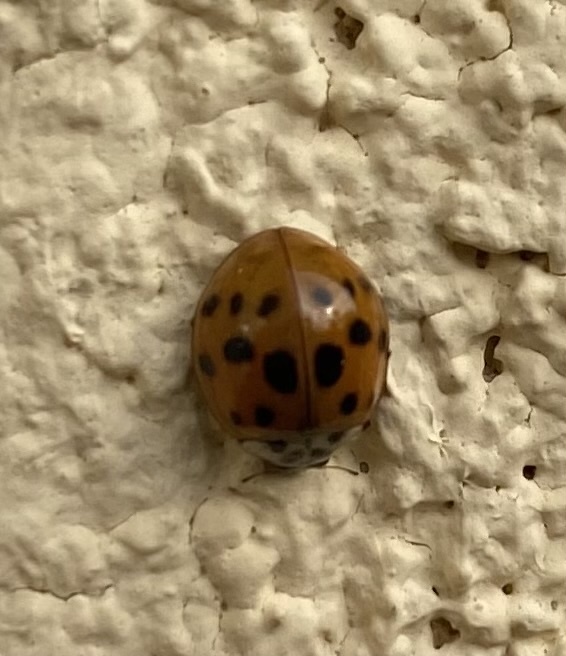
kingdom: Animalia
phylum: Arthropoda
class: Insecta
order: Coleoptera
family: Coccinellidae
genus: Harmonia
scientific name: Harmonia axyridis
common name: Harlequin ladybird
